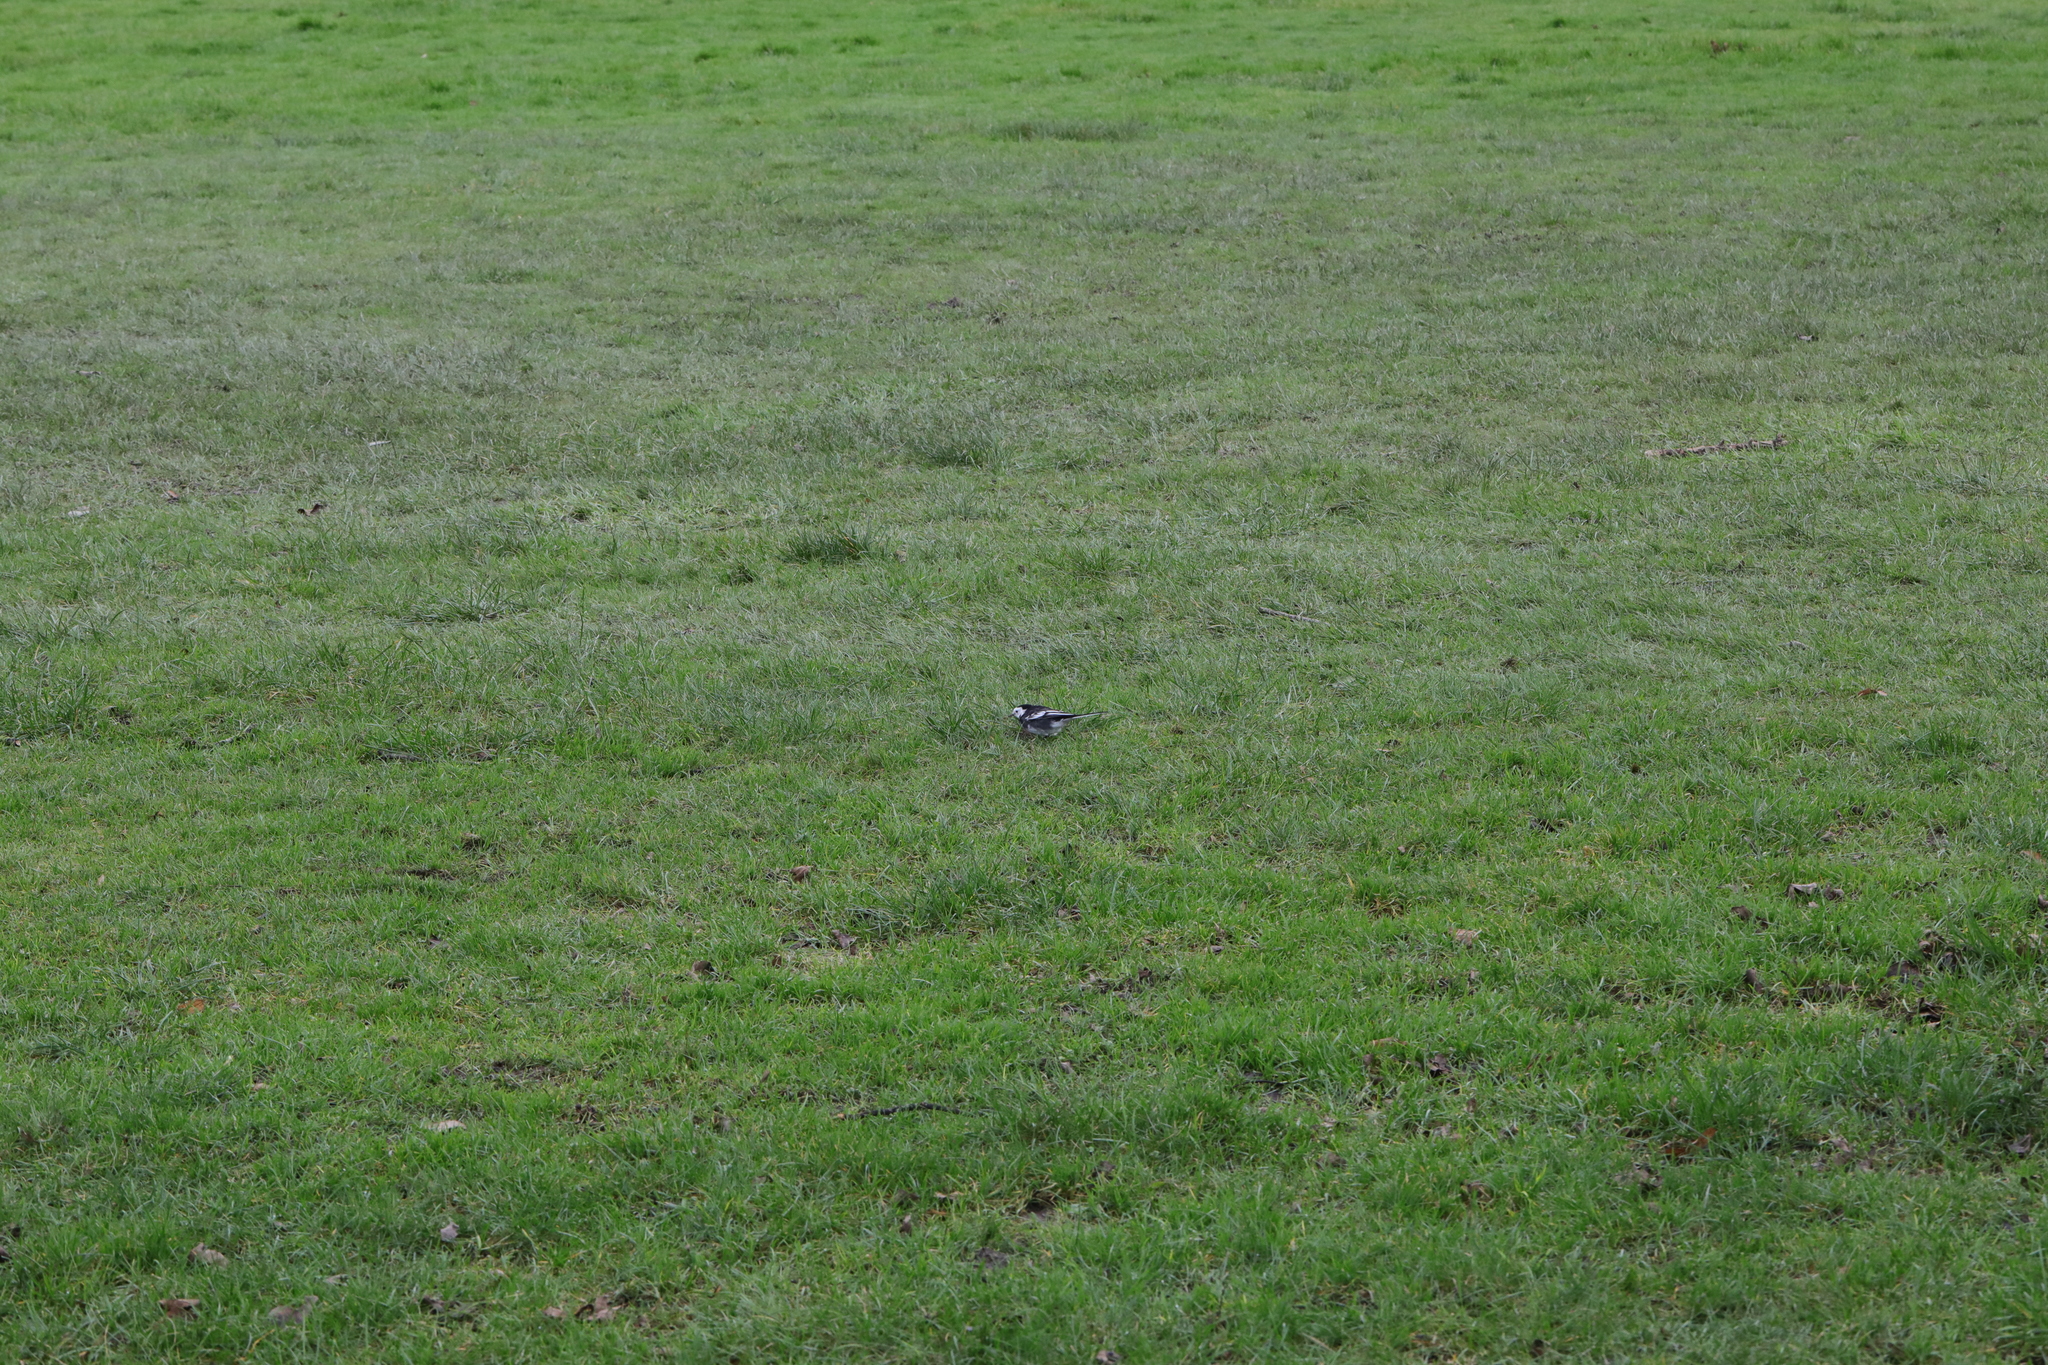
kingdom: Animalia
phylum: Chordata
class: Aves
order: Passeriformes
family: Motacillidae
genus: Motacilla
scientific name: Motacilla alba
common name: White wagtail
